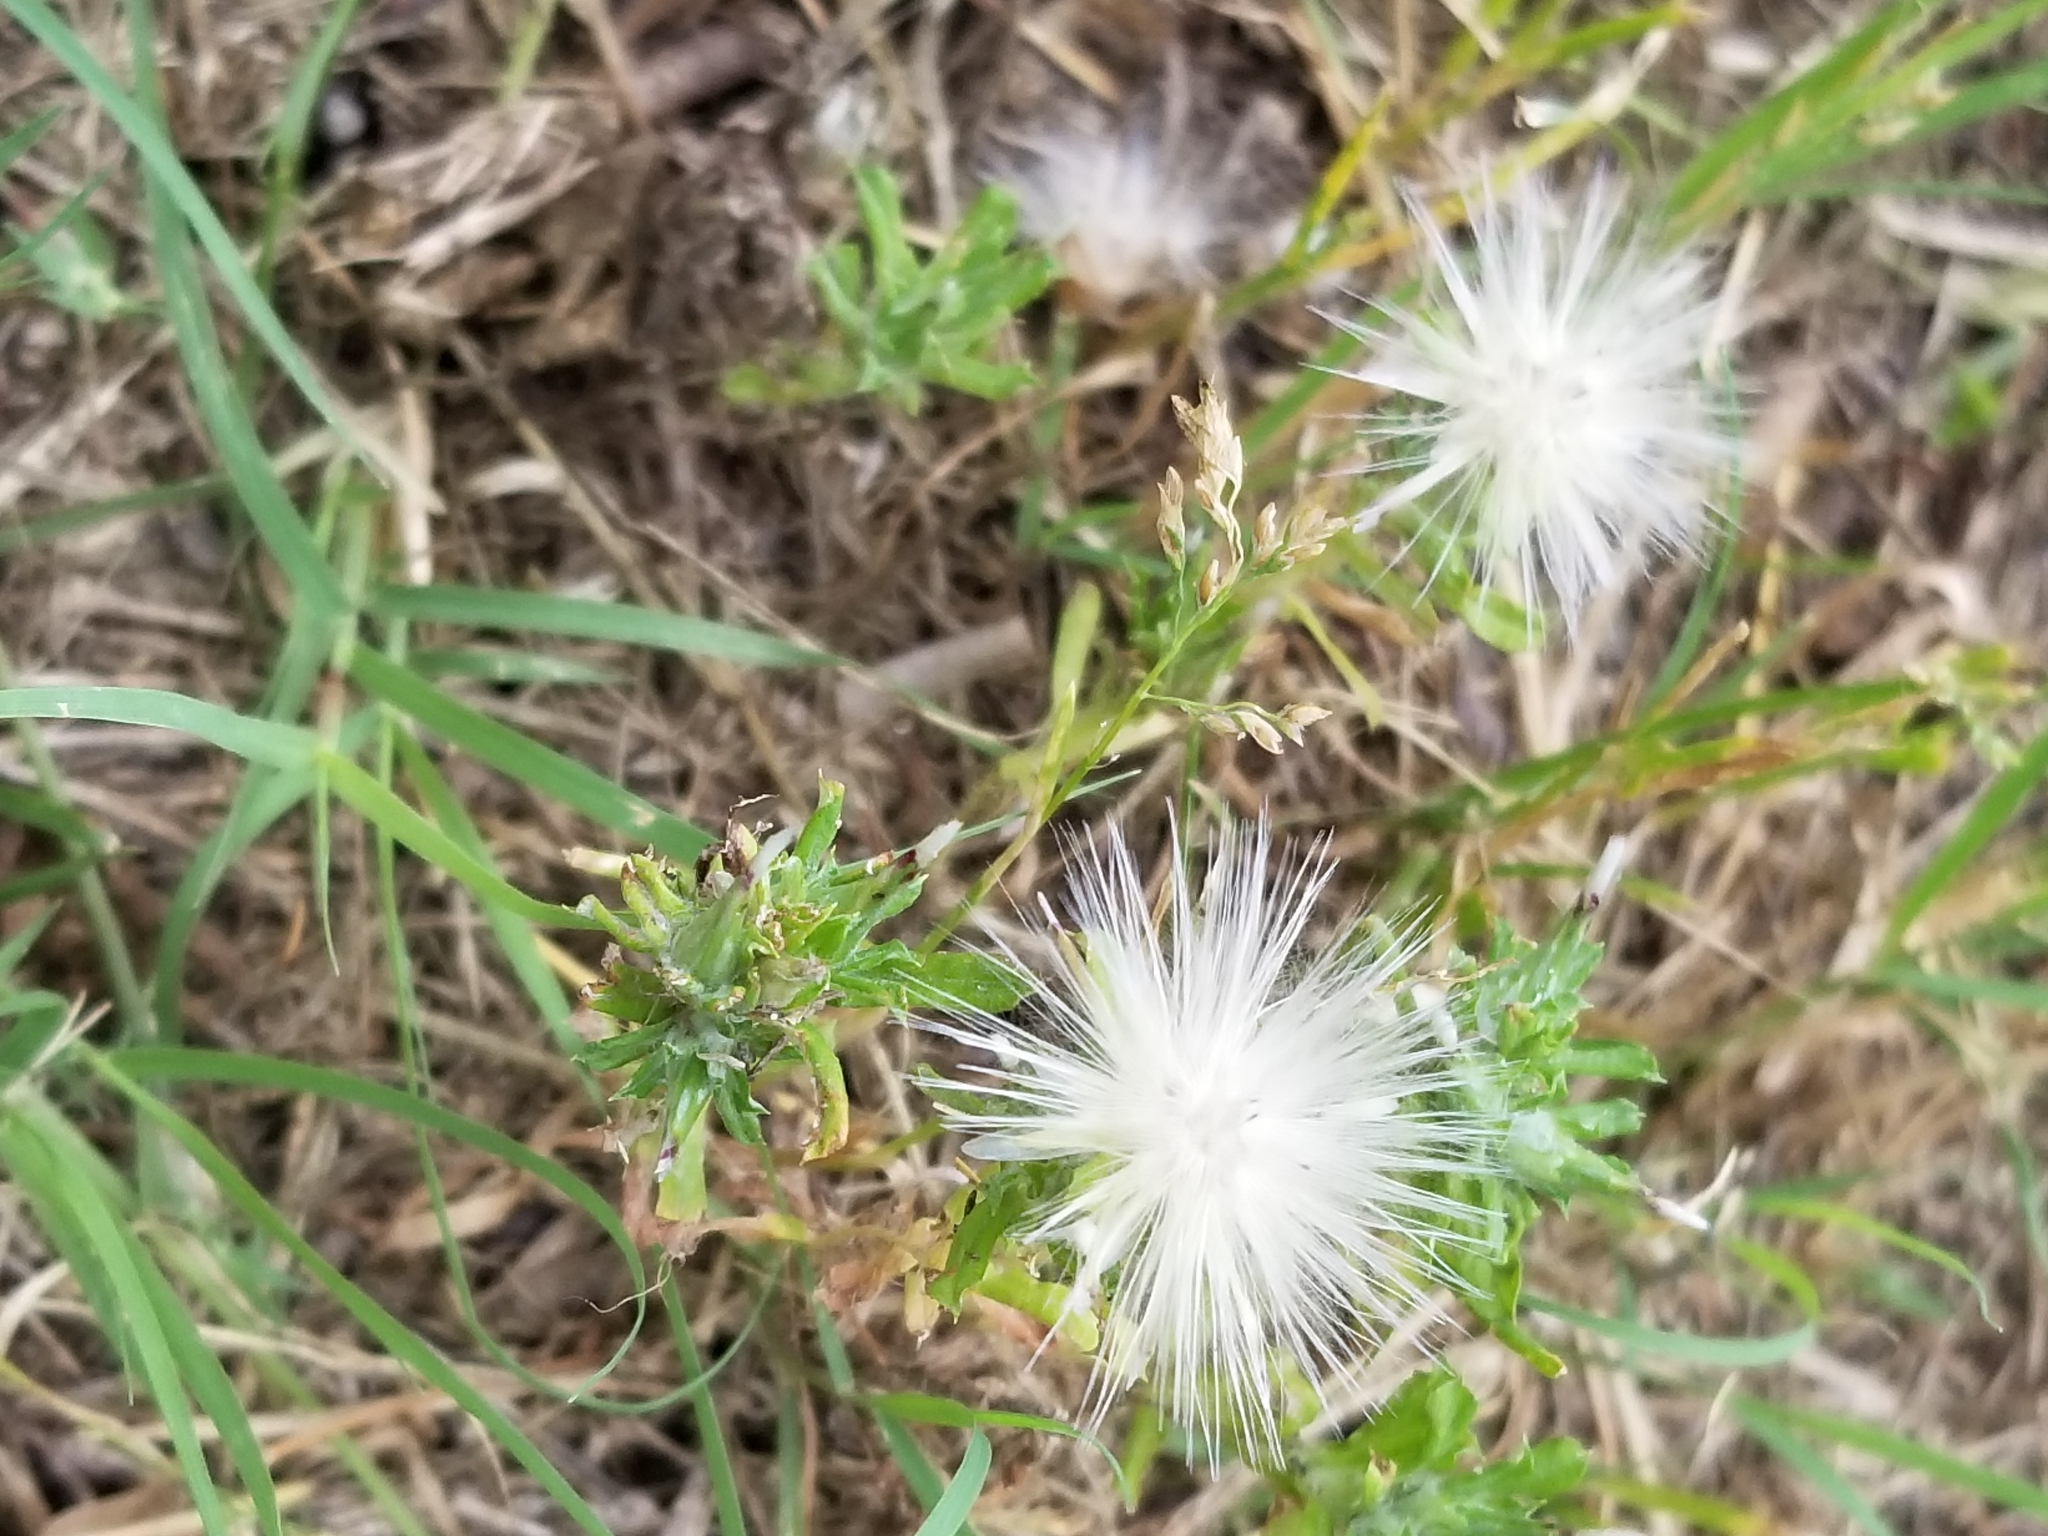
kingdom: Plantae
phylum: Tracheophyta
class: Magnoliopsida
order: Asterales
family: Asteraceae
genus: Facelis
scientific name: Facelis retusa
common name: Annual trampweed
